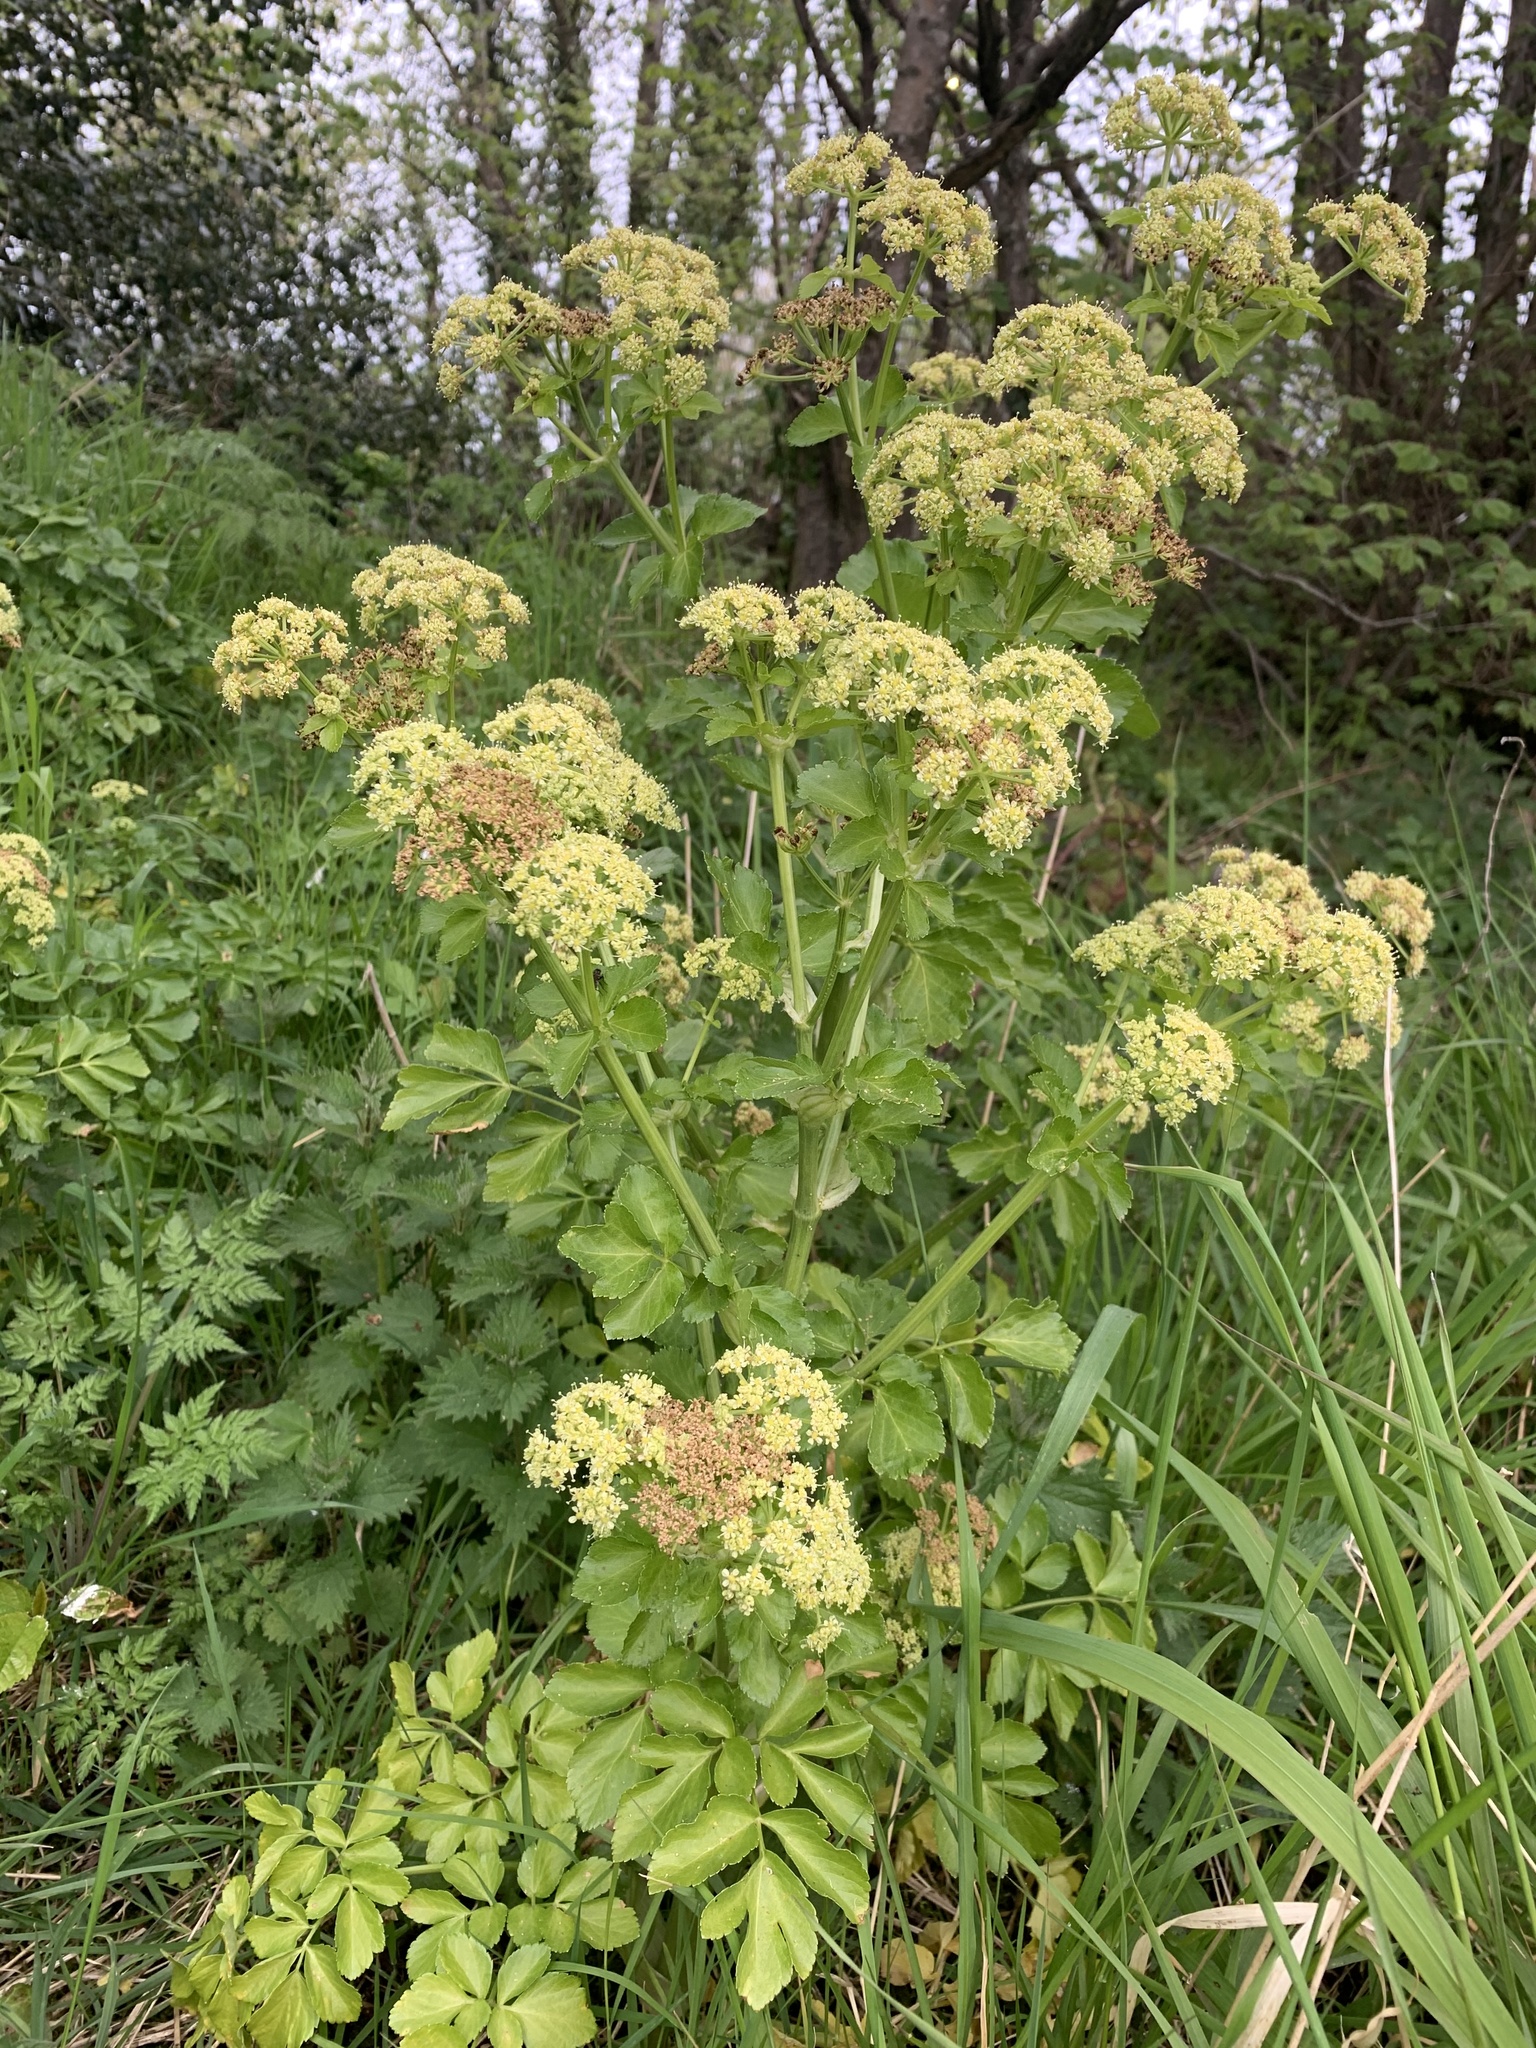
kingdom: Plantae
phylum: Tracheophyta
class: Magnoliopsida
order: Apiales
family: Apiaceae
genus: Smyrnium
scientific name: Smyrnium olusatrum
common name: Alexanders
